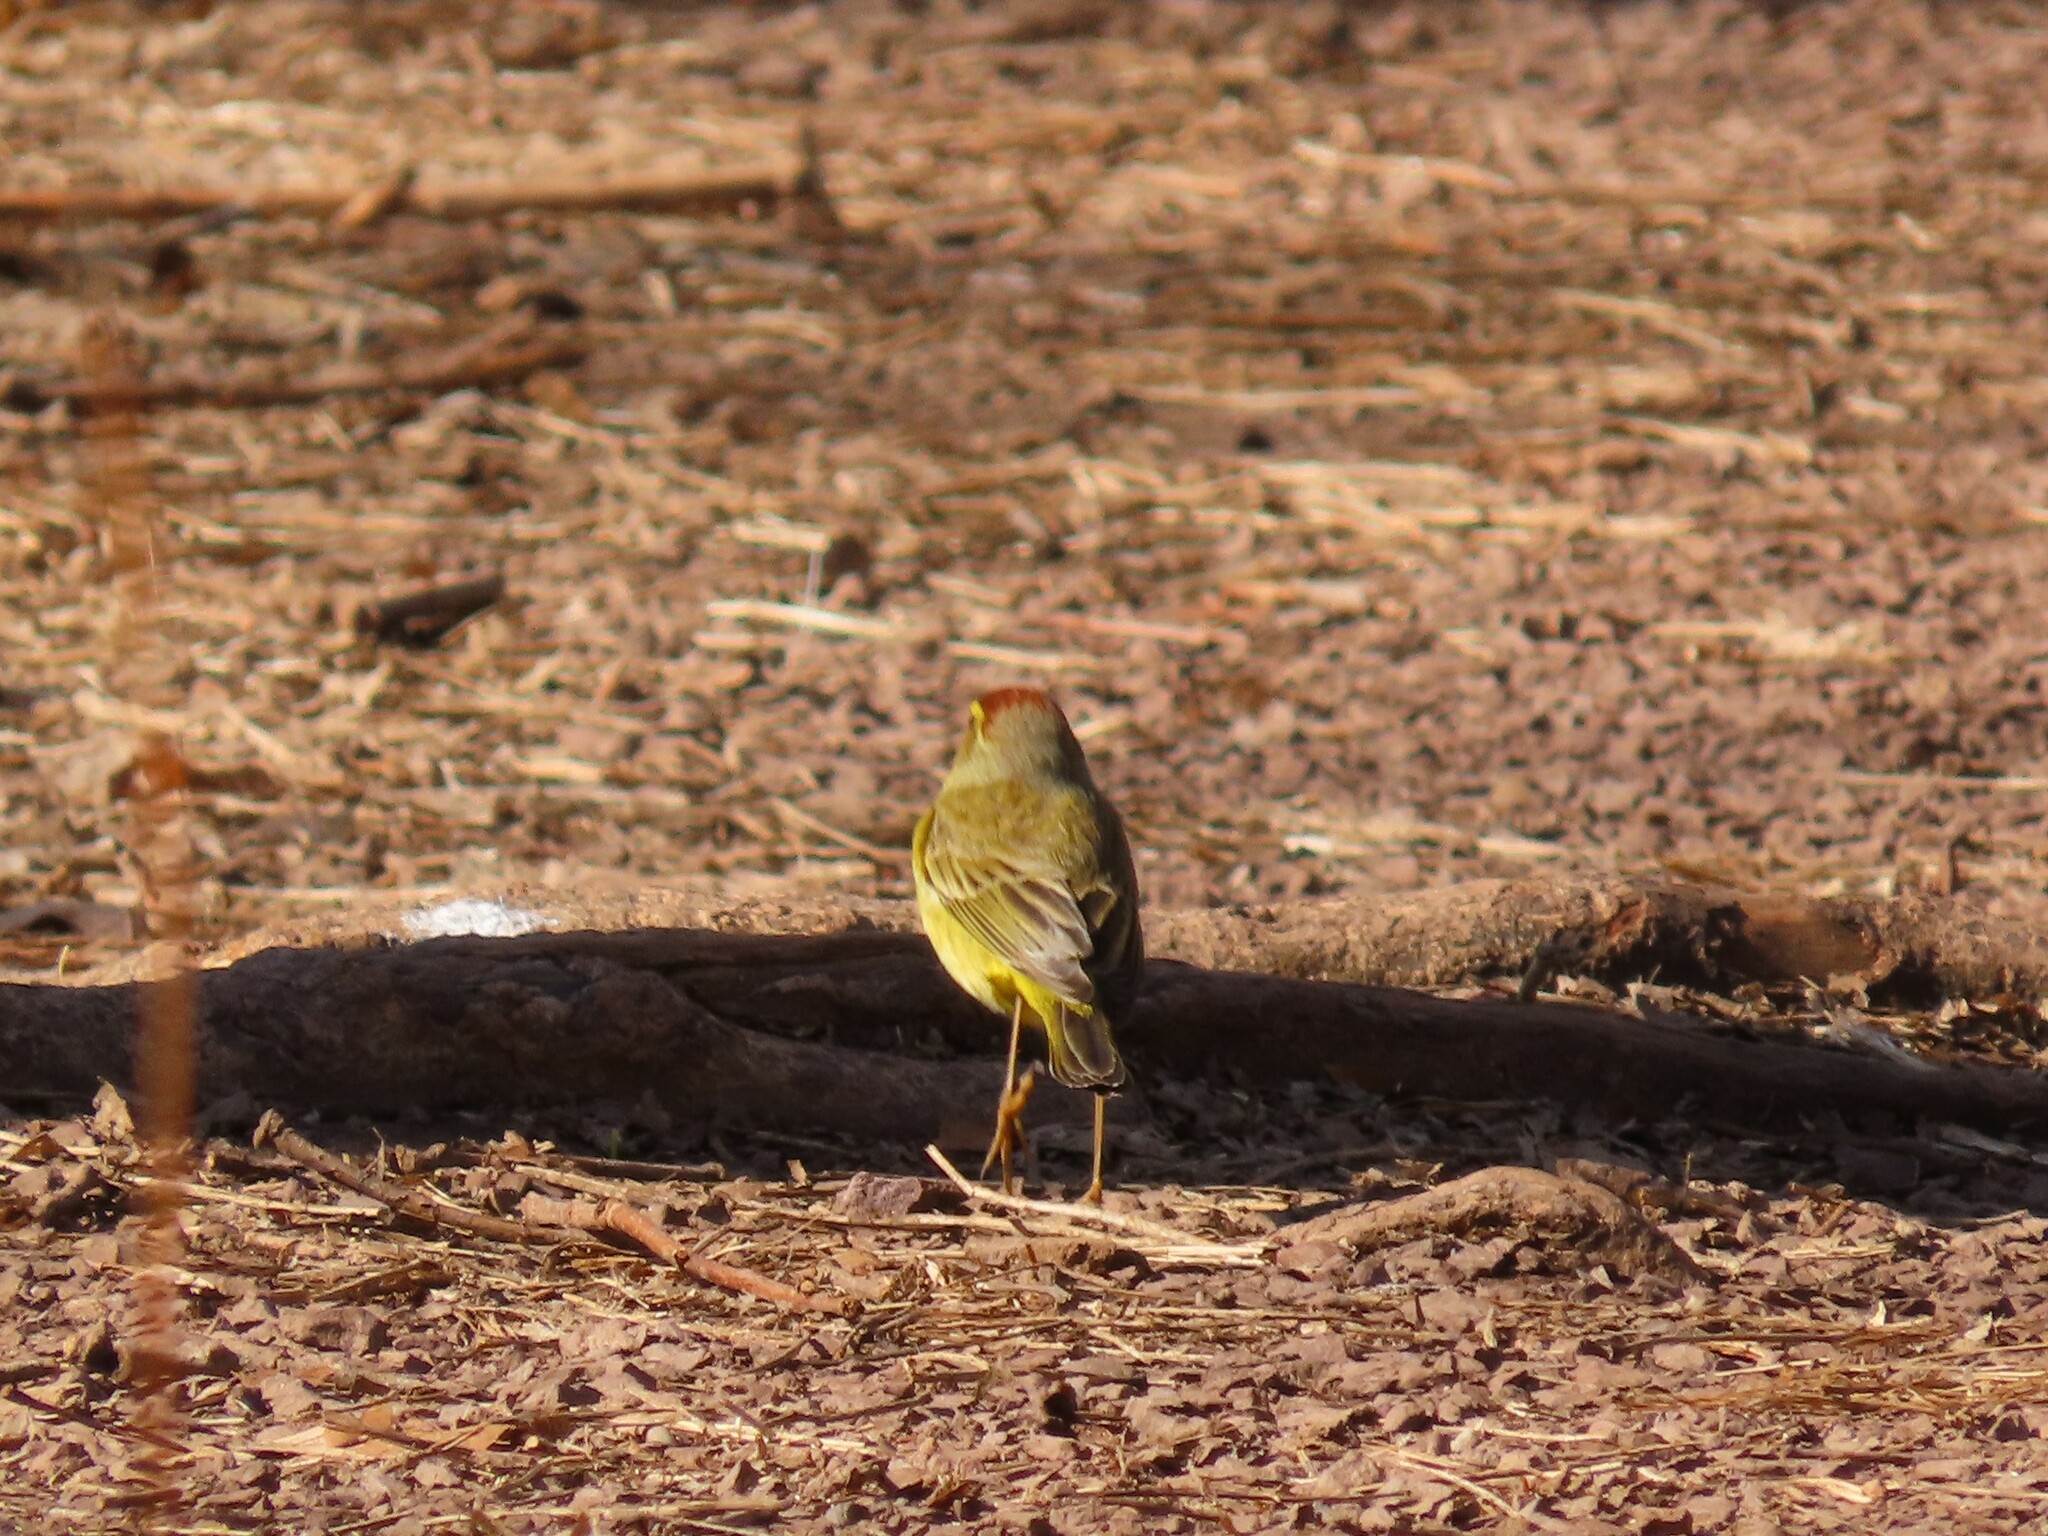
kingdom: Animalia
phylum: Chordata
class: Aves
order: Passeriformes
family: Parulidae
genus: Setophaga
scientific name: Setophaga palmarum
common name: Palm warbler
